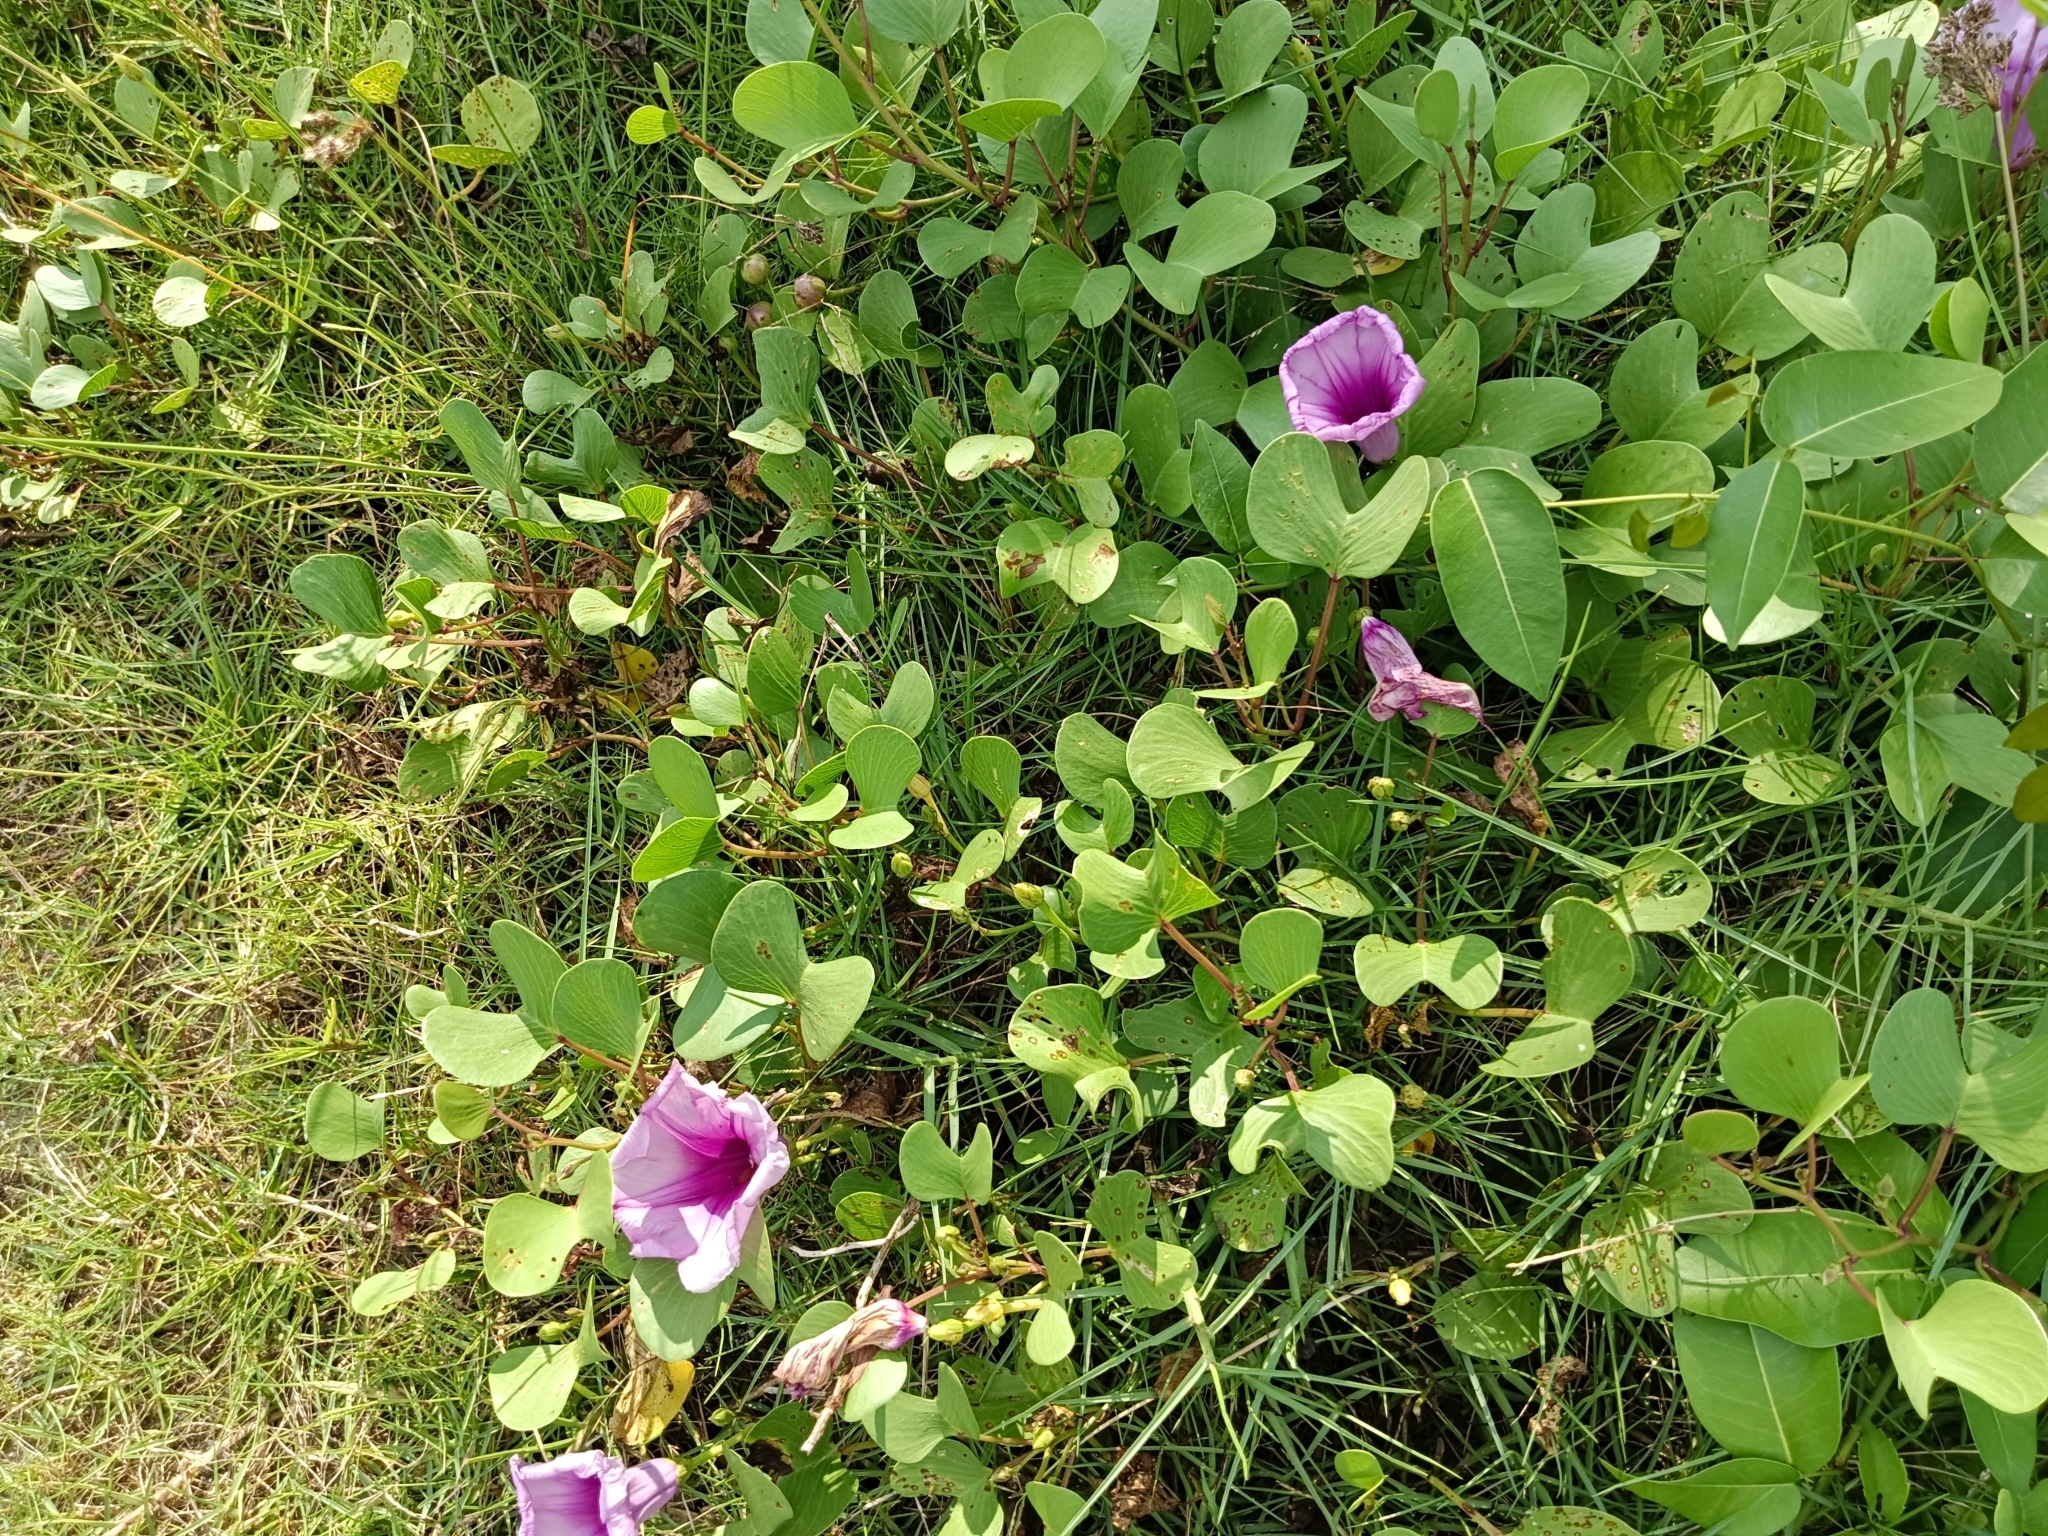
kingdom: Plantae
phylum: Tracheophyta
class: Magnoliopsida
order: Solanales
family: Convolvulaceae
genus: Ipomoea
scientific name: Ipomoea pes-caprae
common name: Beach morning glory
